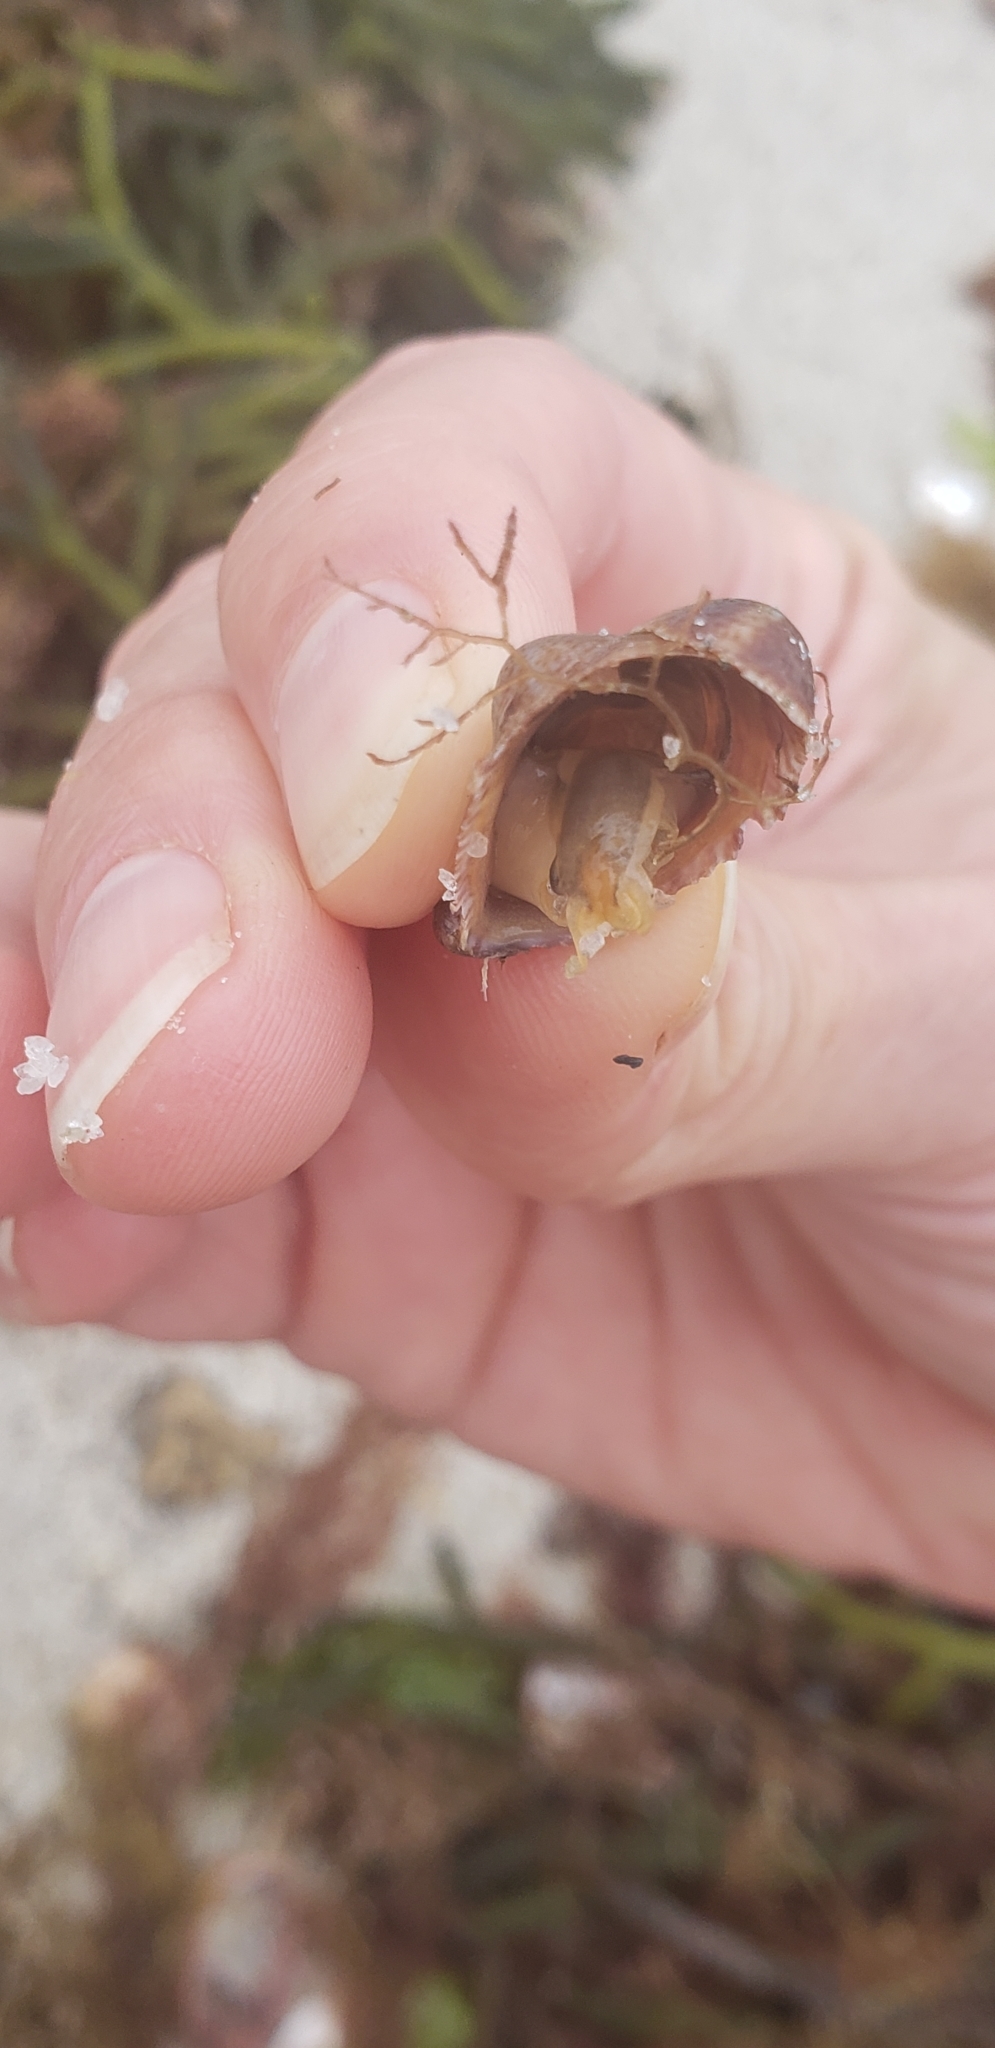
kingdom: Animalia
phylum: Mollusca
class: Gastropoda
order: Littorinimorpha
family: Calyptraeidae
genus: Crepidula
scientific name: Crepidula fornicata
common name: Slipper limpet
